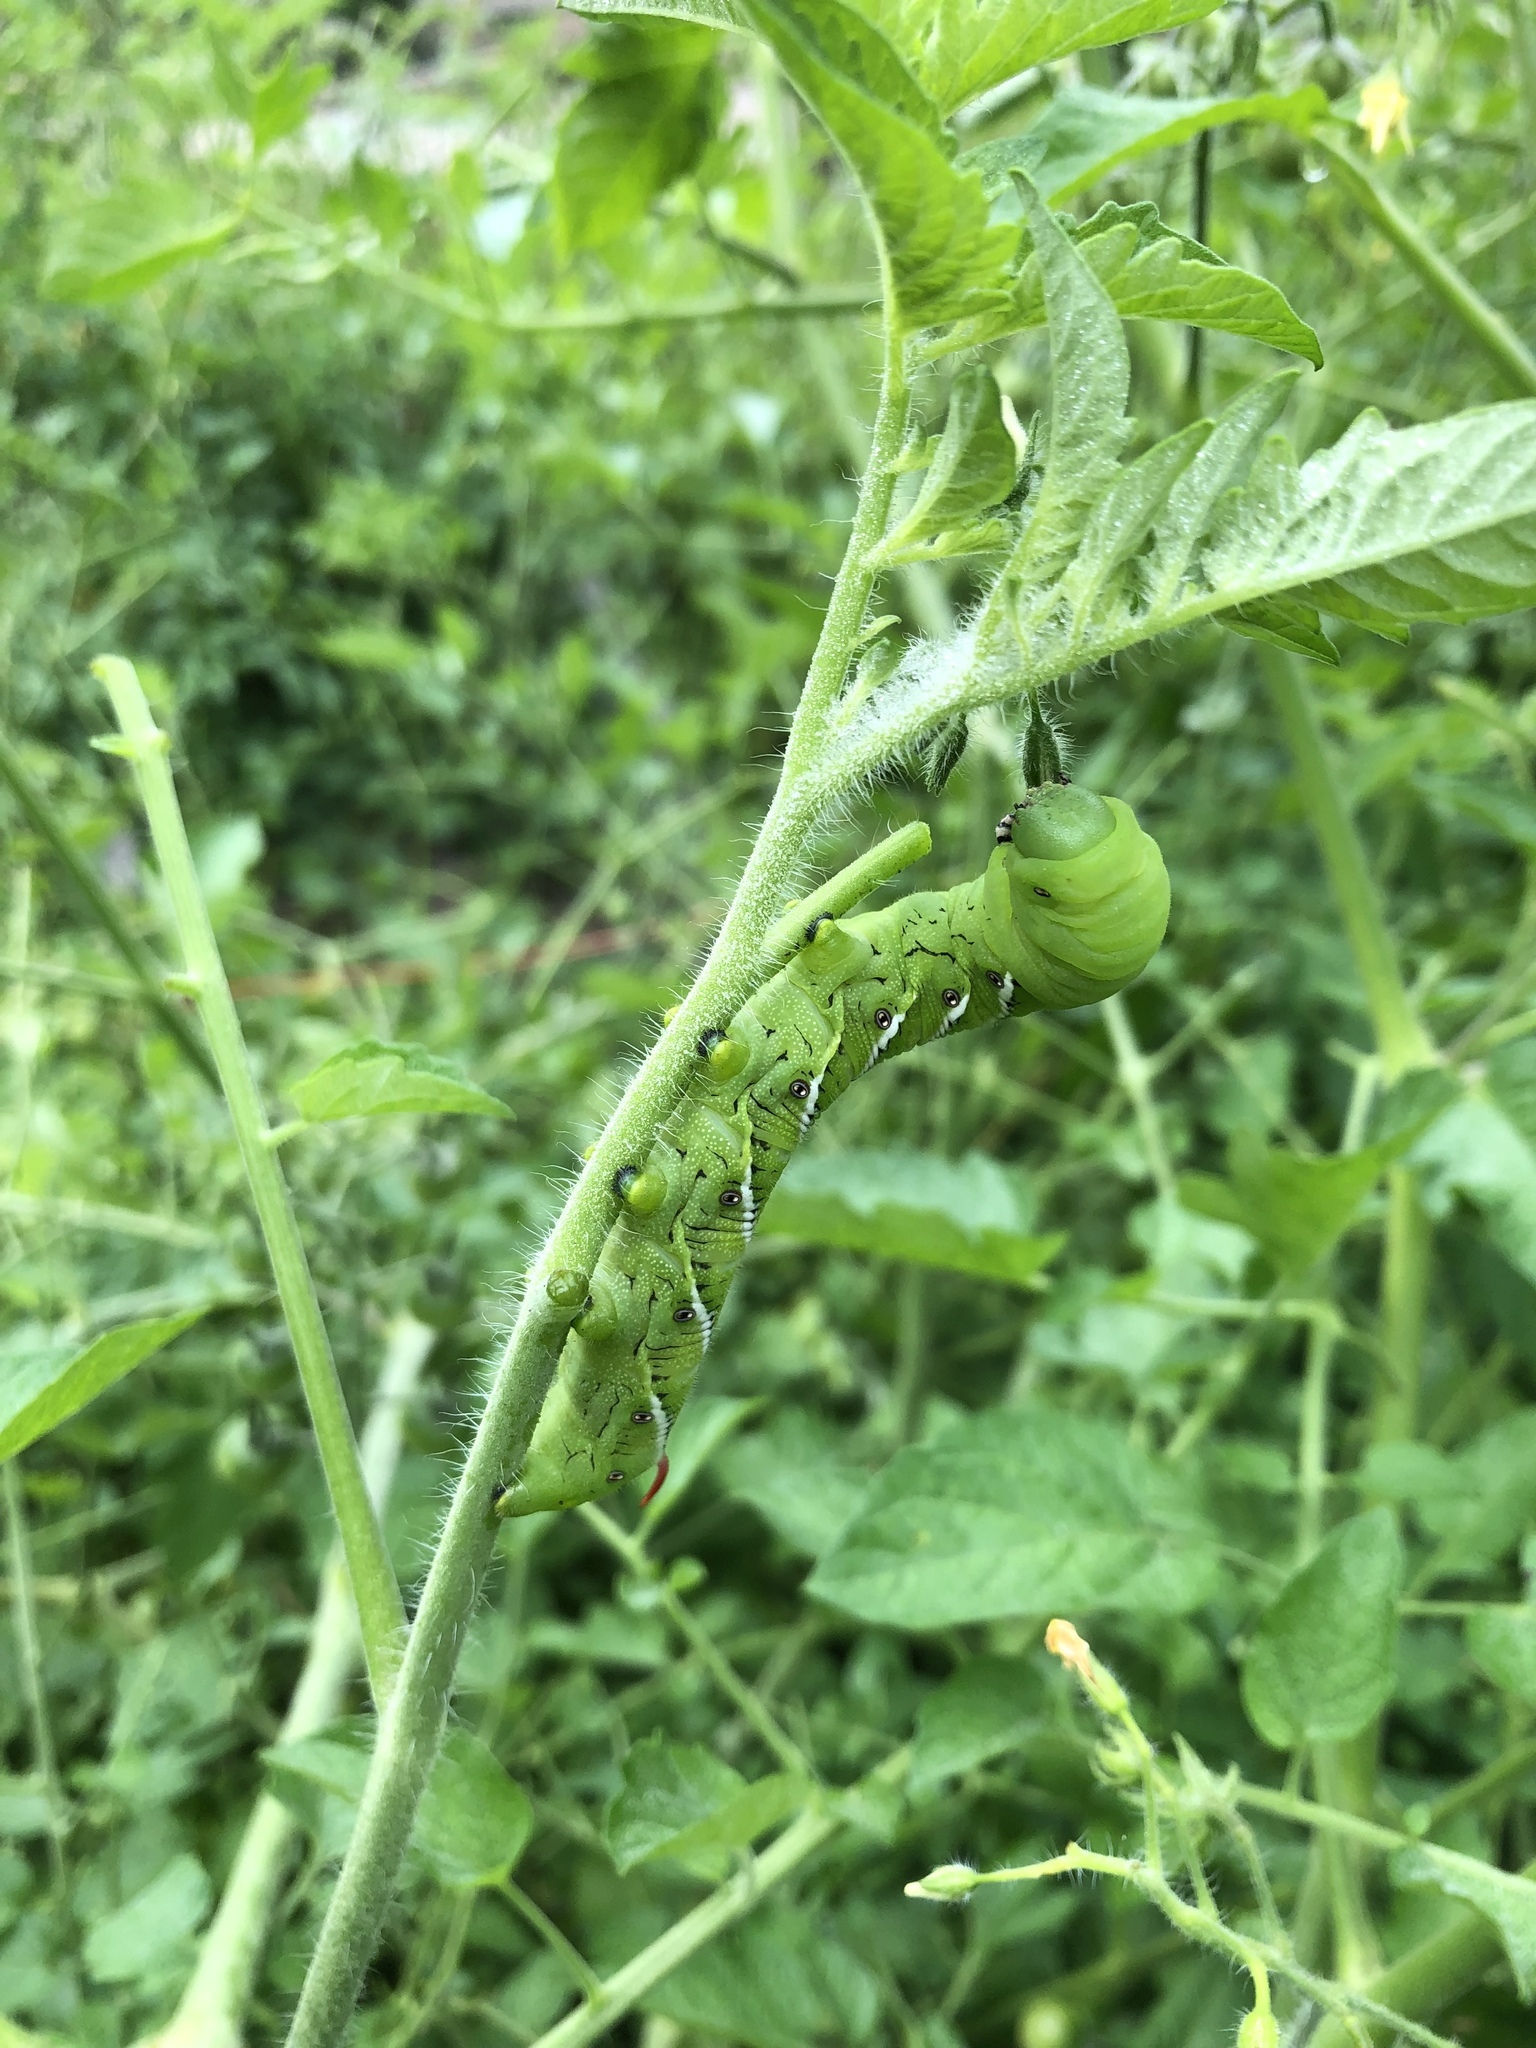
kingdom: Animalia
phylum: Arthropoda
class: Insecta
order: Lepidoptera
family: Sphingidae
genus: Manduca
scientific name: Manduca sexta
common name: Carolina sphinx
